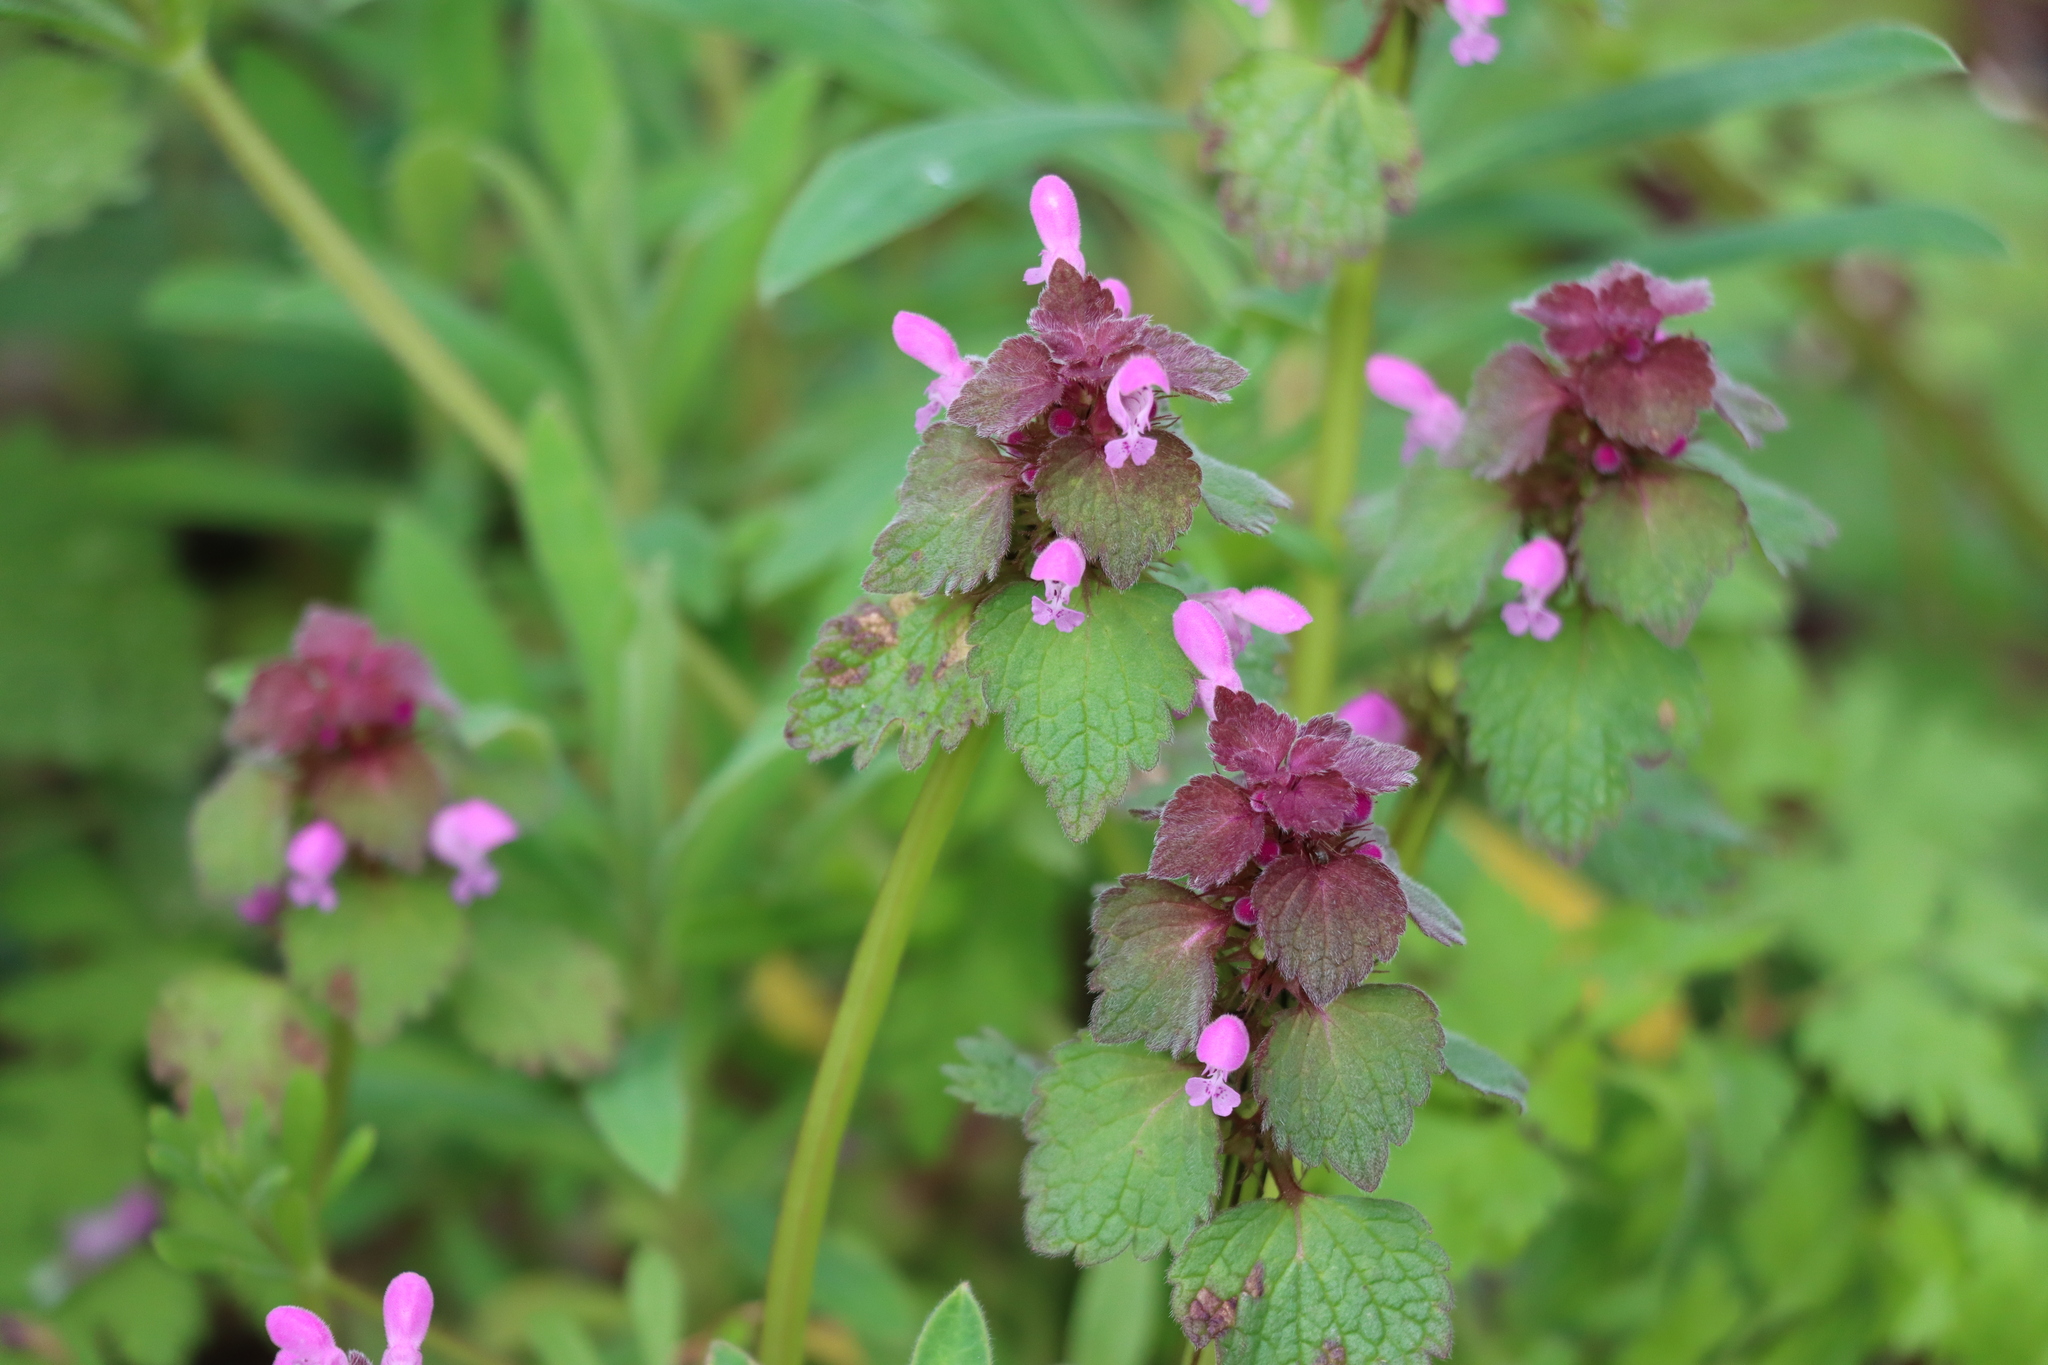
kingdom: Plantae
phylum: Tracheophyta
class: Magnoliopsida
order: Lamiales
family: Lamiaceae
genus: Lamium
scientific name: Lamium purpureum
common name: Red dead-nettle
